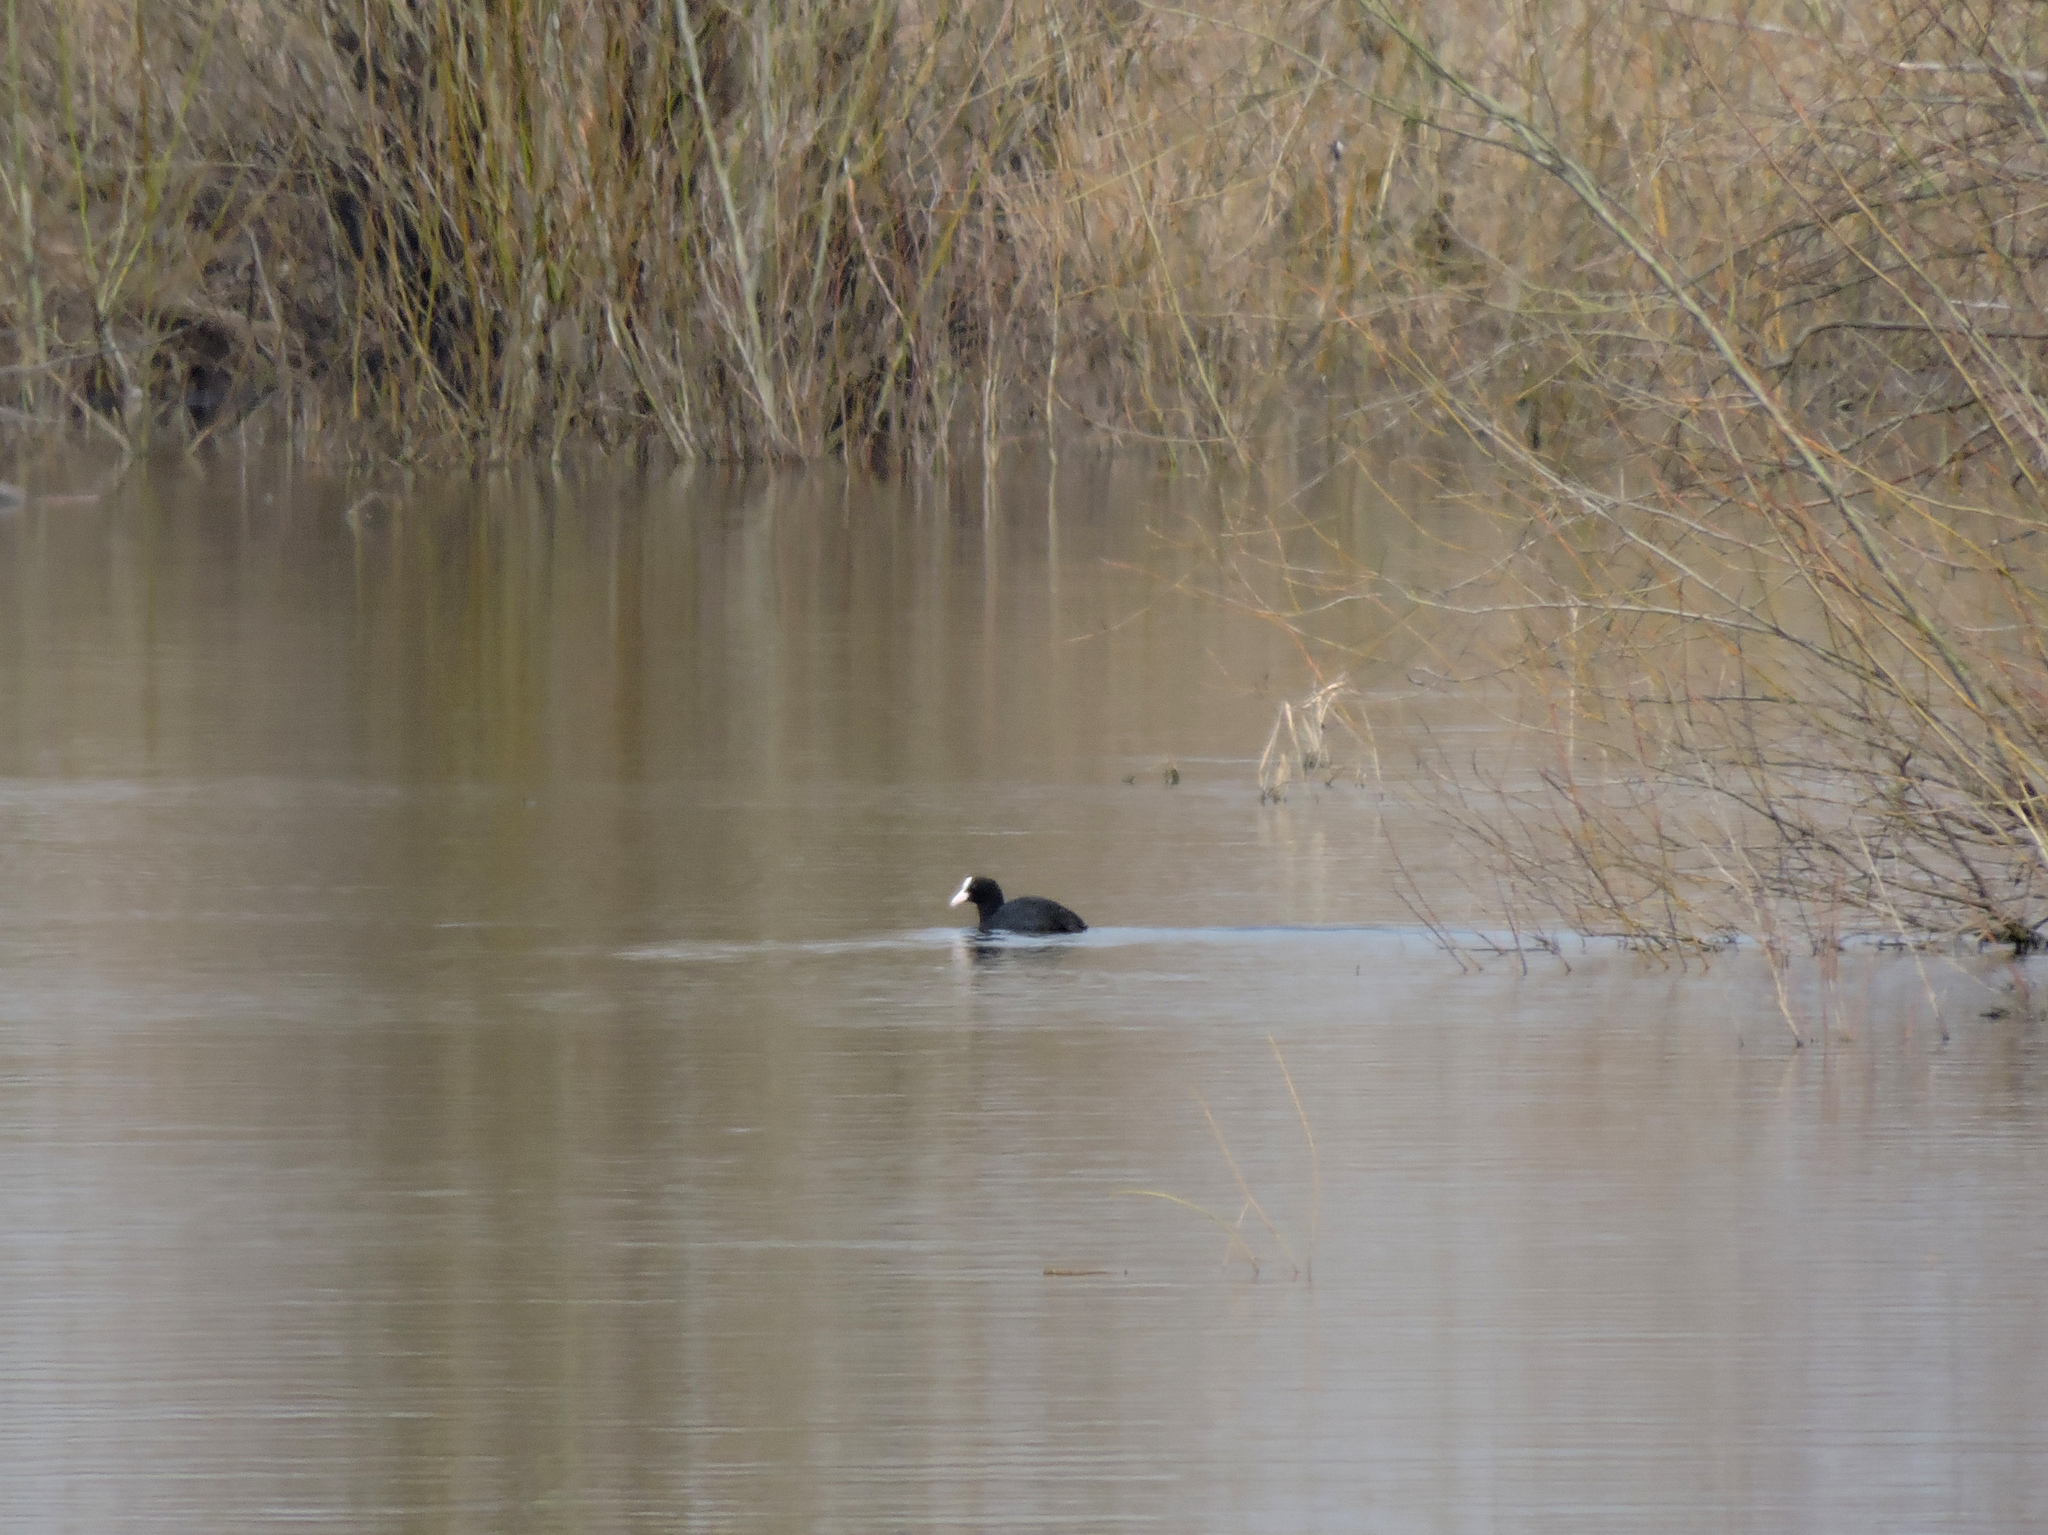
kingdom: Animalia
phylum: Chordata
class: Aves
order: Gruiformes
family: Rallidae
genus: Fulica
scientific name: Fulica atra
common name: Eurasian coot
